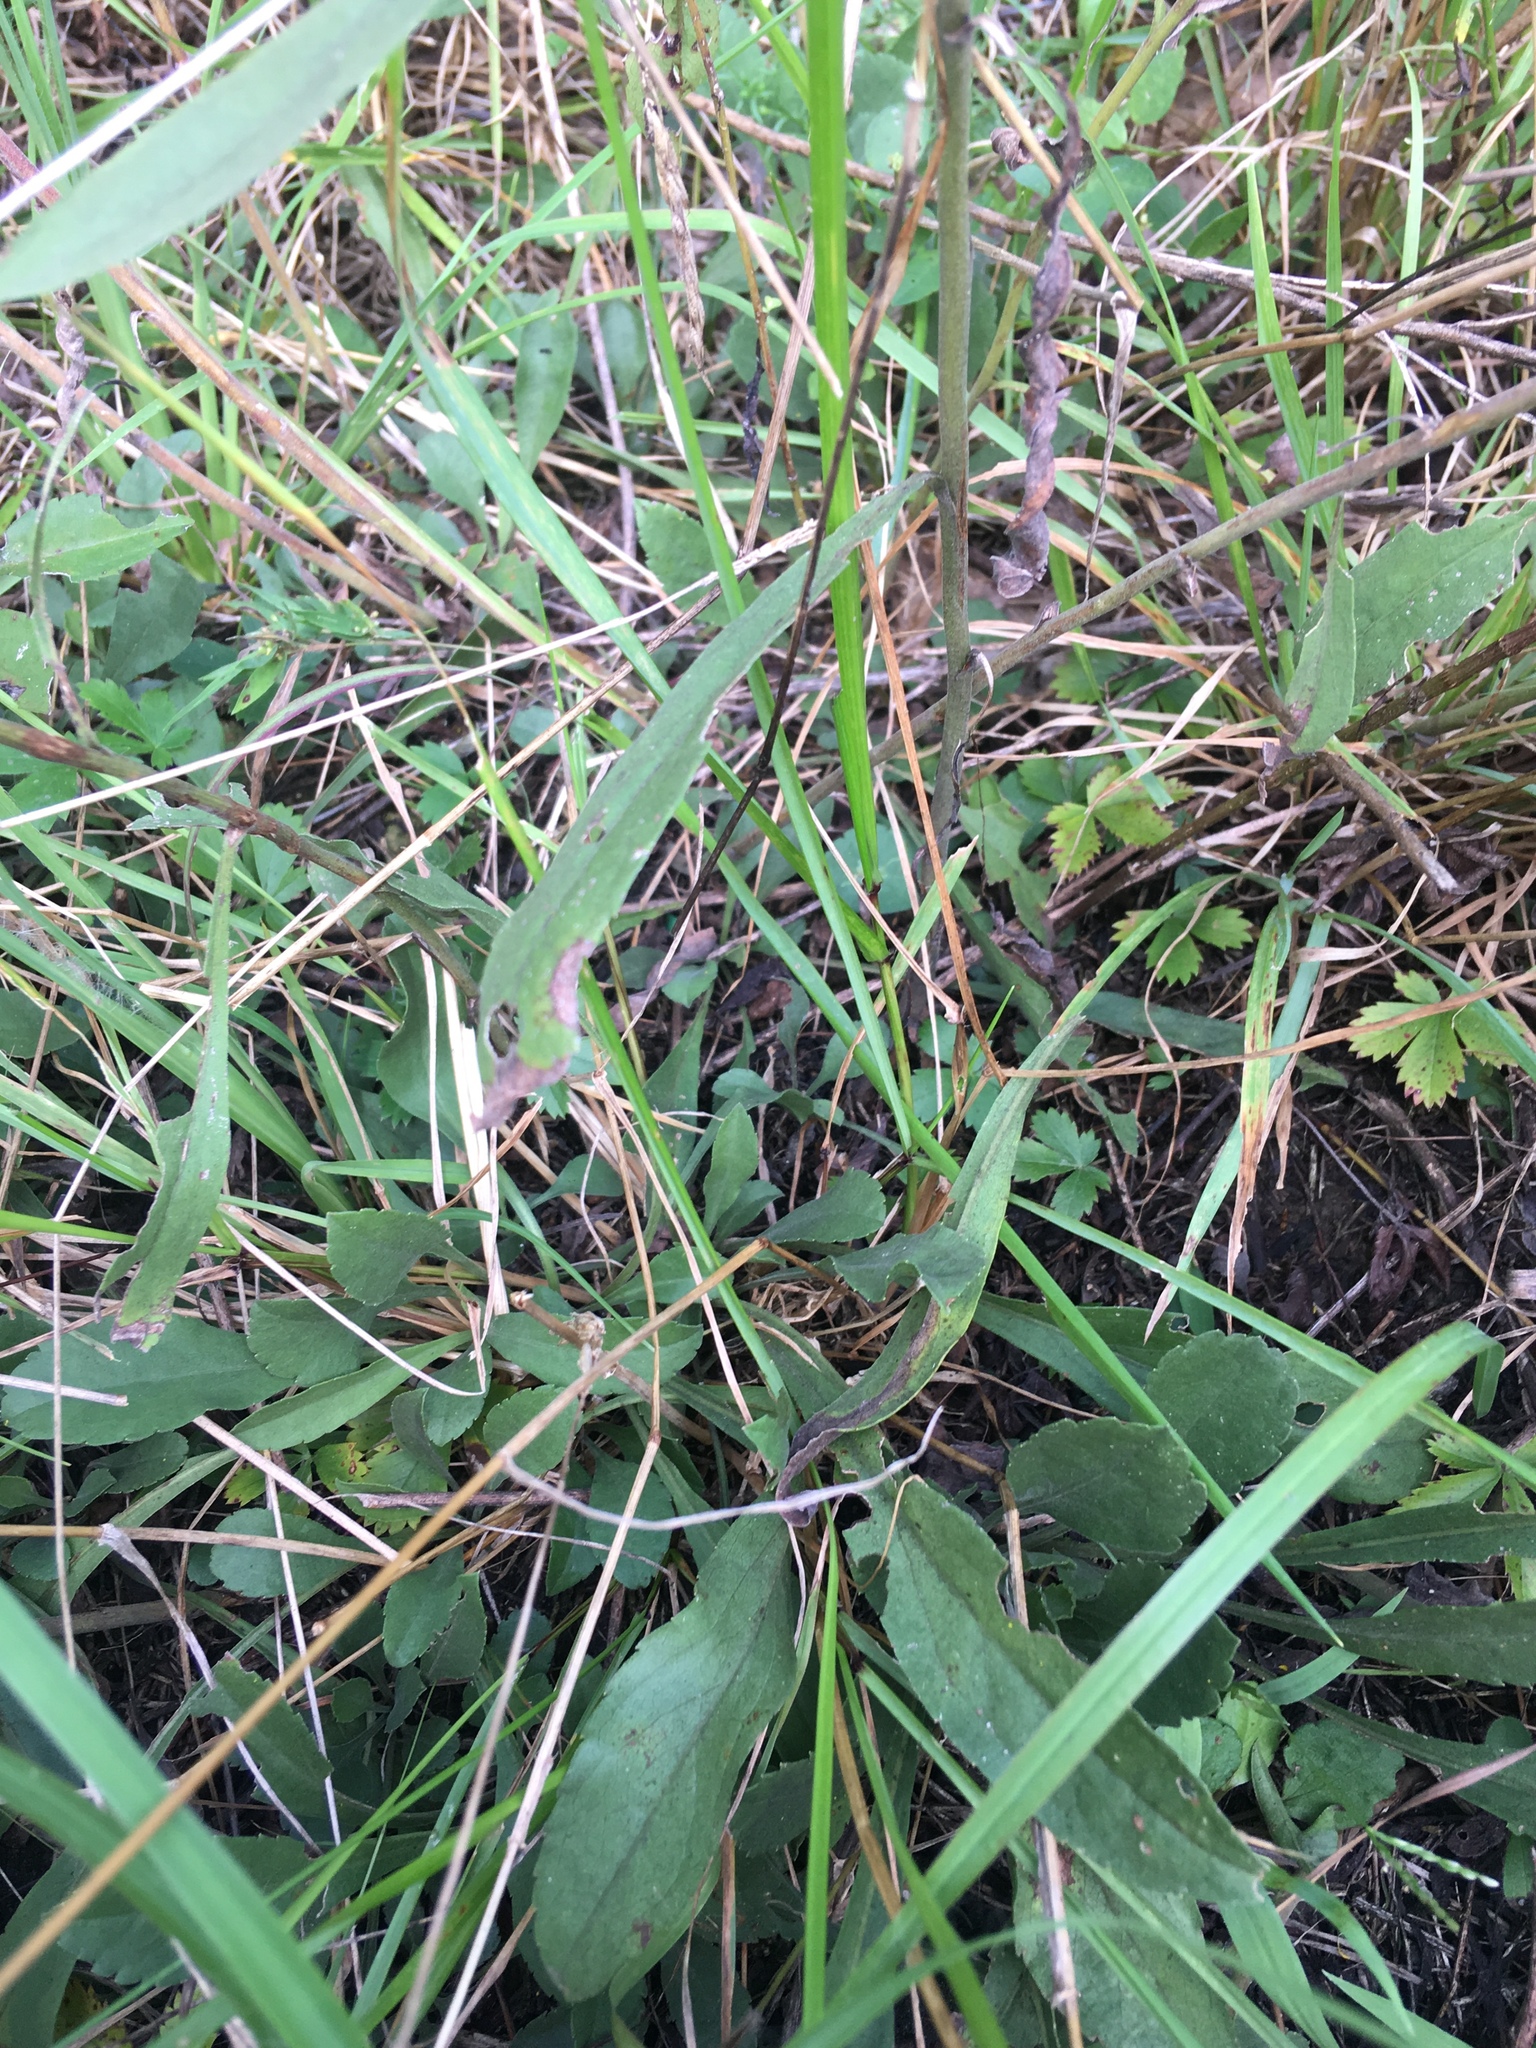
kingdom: Plantae
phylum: Tracheophyta
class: Magnoliopsida
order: Asterales
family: Asteraceae
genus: Solidago
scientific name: Solidago nemoralis
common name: Grey goldenrod
